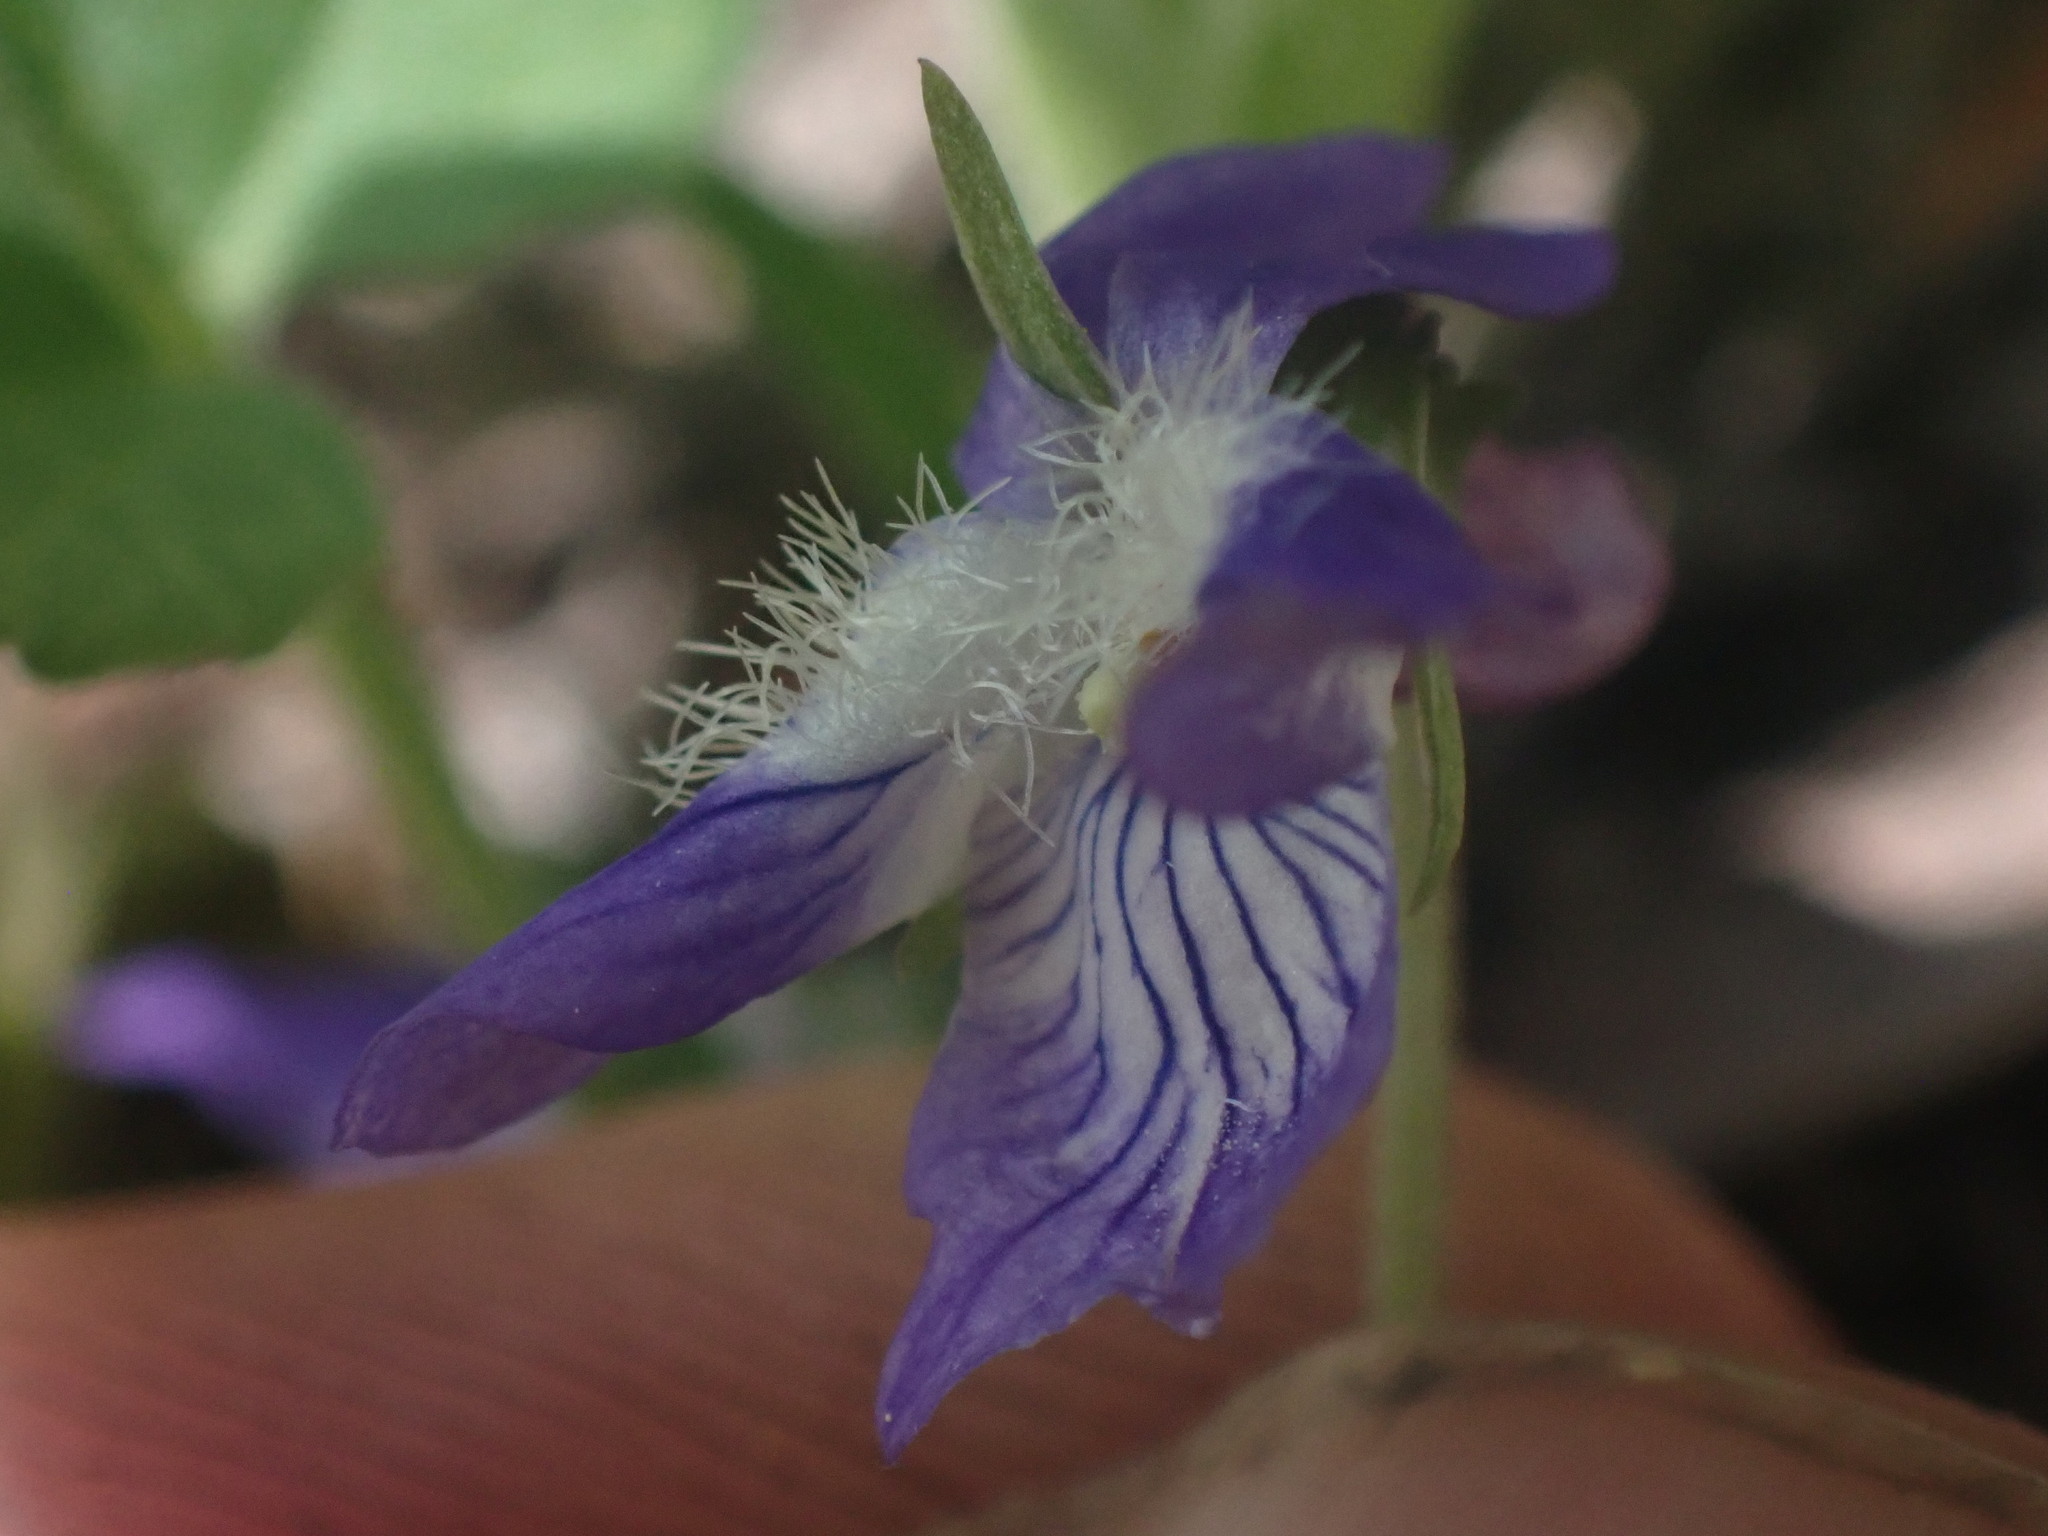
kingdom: Plantae
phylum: Tracheophyta
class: Magnoliopsida
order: Malpighiales
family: Violaceae
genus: Viola
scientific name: Viola adunca
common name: Sand violet
